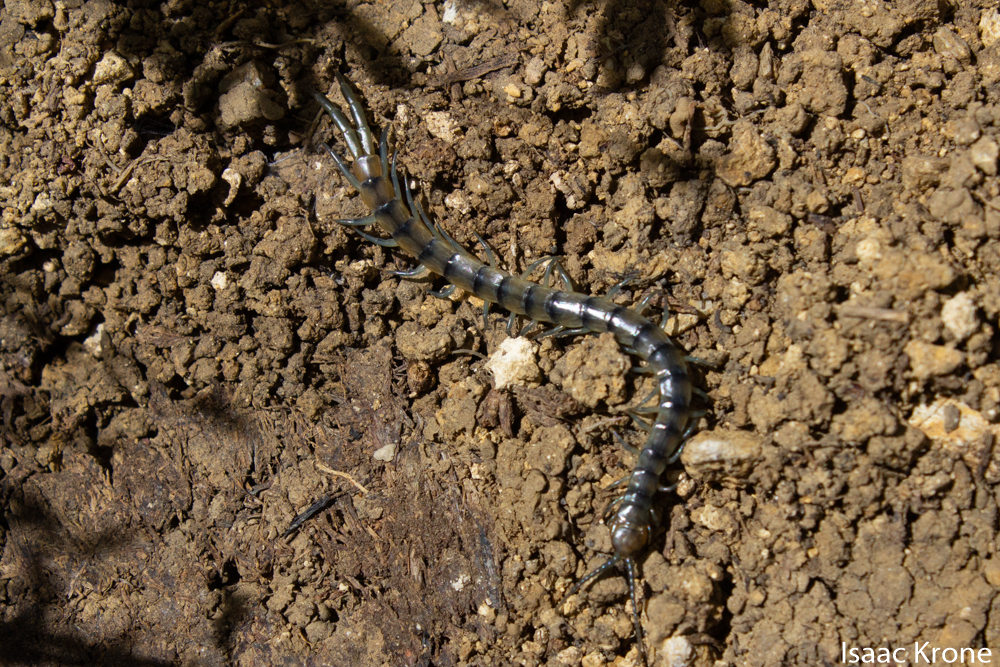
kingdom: Animalia
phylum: Arthropoda
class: Chilopoda
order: Scolopendromorpha
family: Scolopendridae
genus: Scolopendra
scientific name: Scolopendra polymorpha
